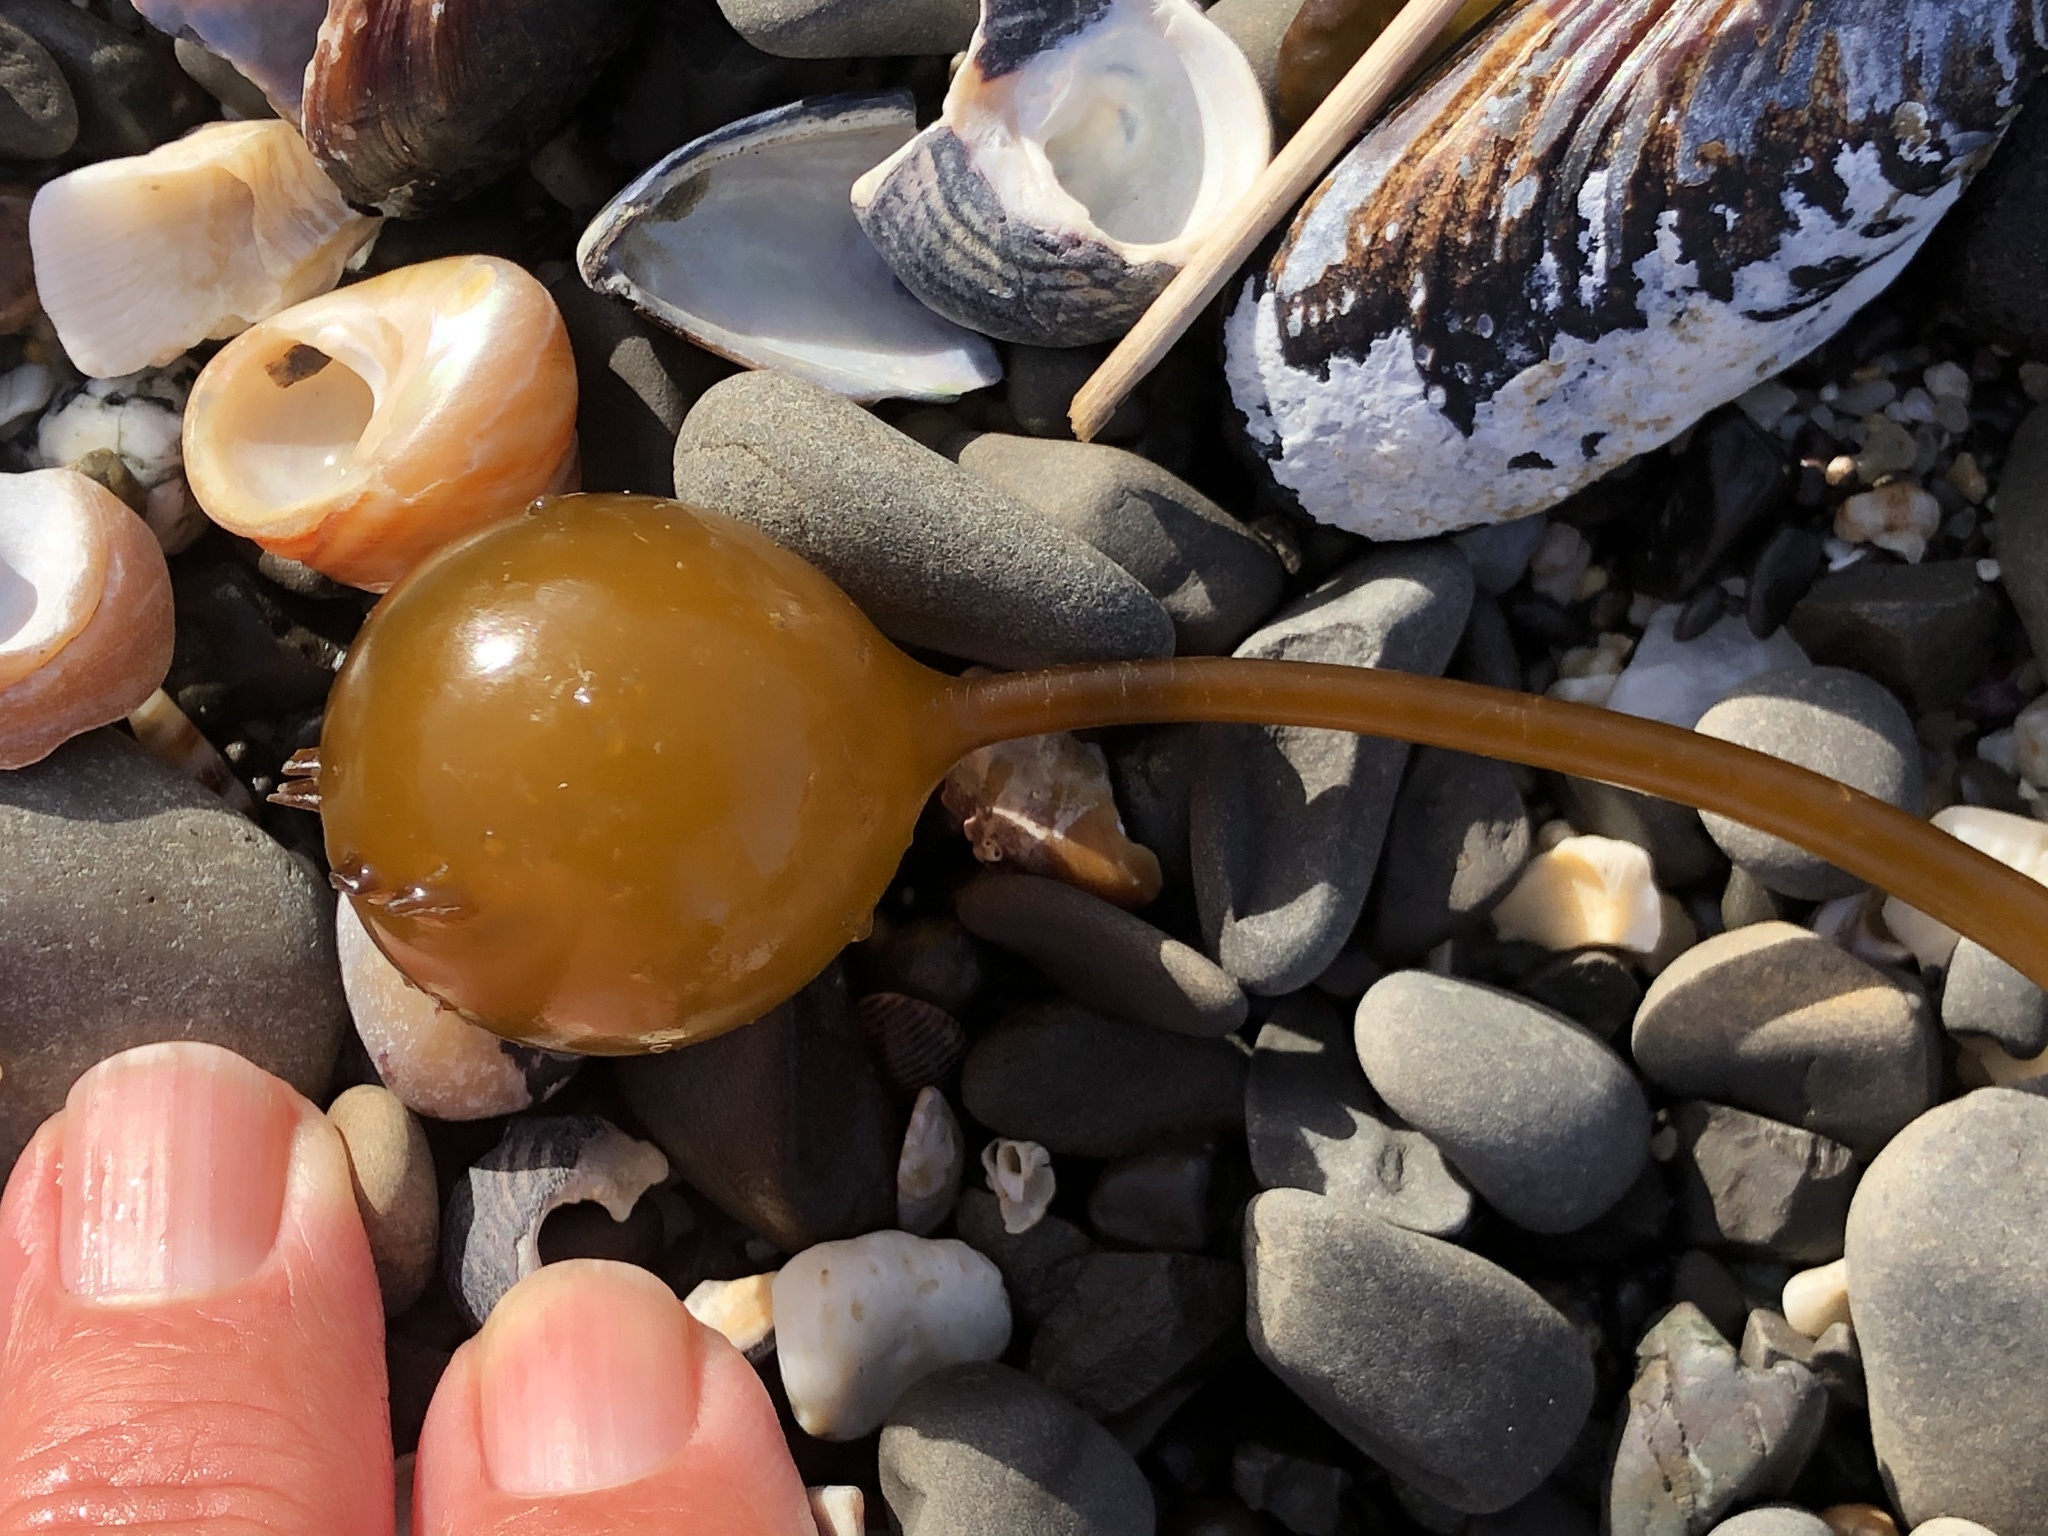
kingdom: Chromista
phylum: Ochrophyta
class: Phaeophyceae
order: Laminariales
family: Laminariaceae
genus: Nereocystis
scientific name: Nereocystis luetkeana
